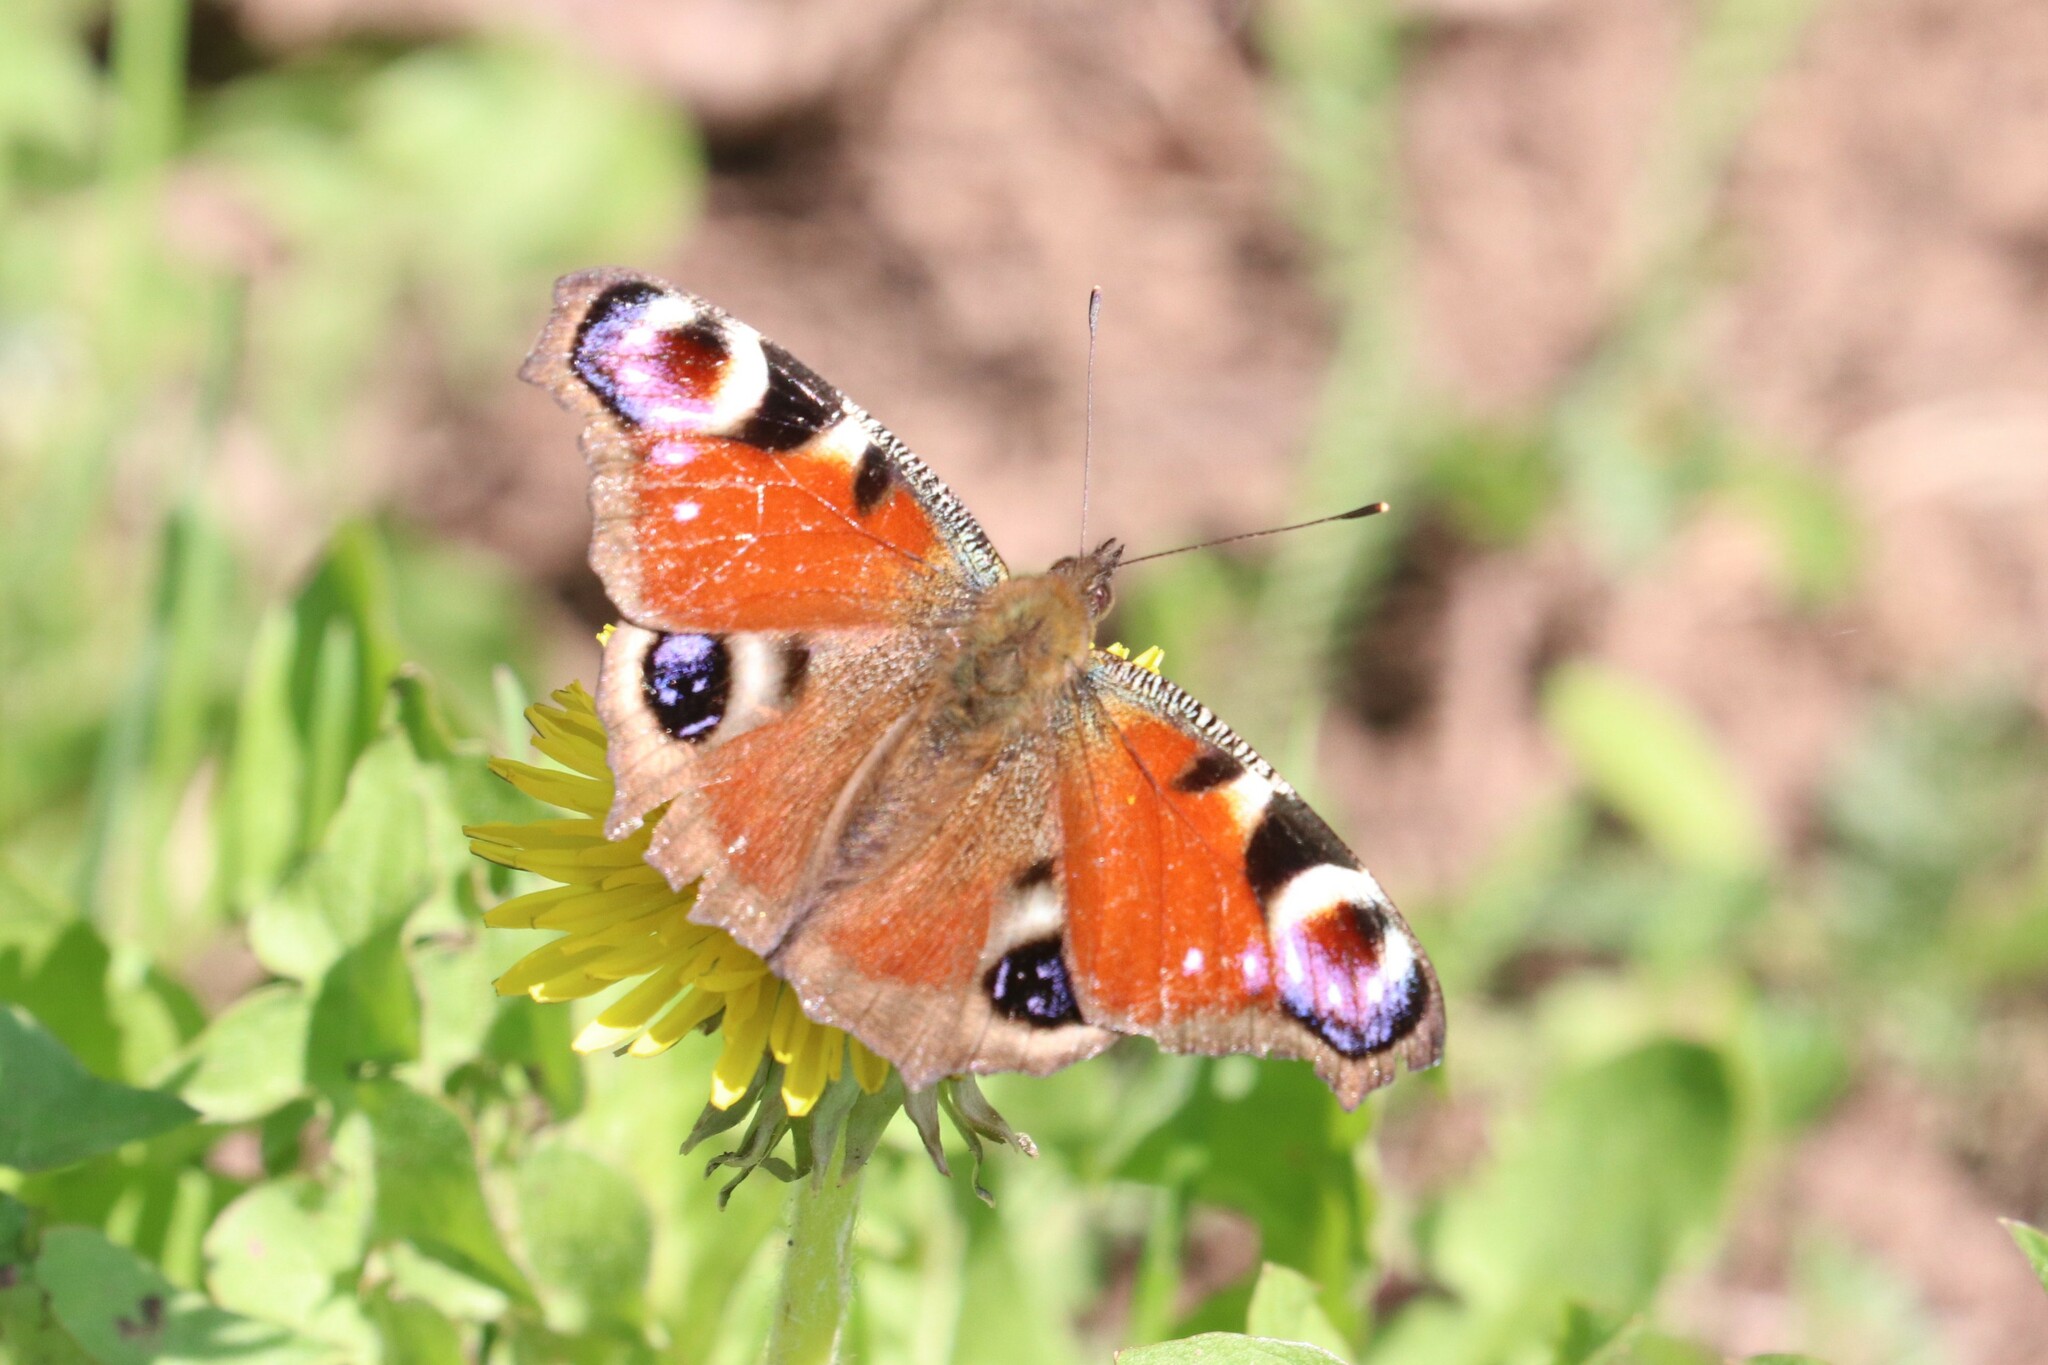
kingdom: Animalia
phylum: Arthropoda
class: Insecta
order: Lepidoptera
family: Nymphalidae
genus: Aglais
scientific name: Aglais io
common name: Peacock
